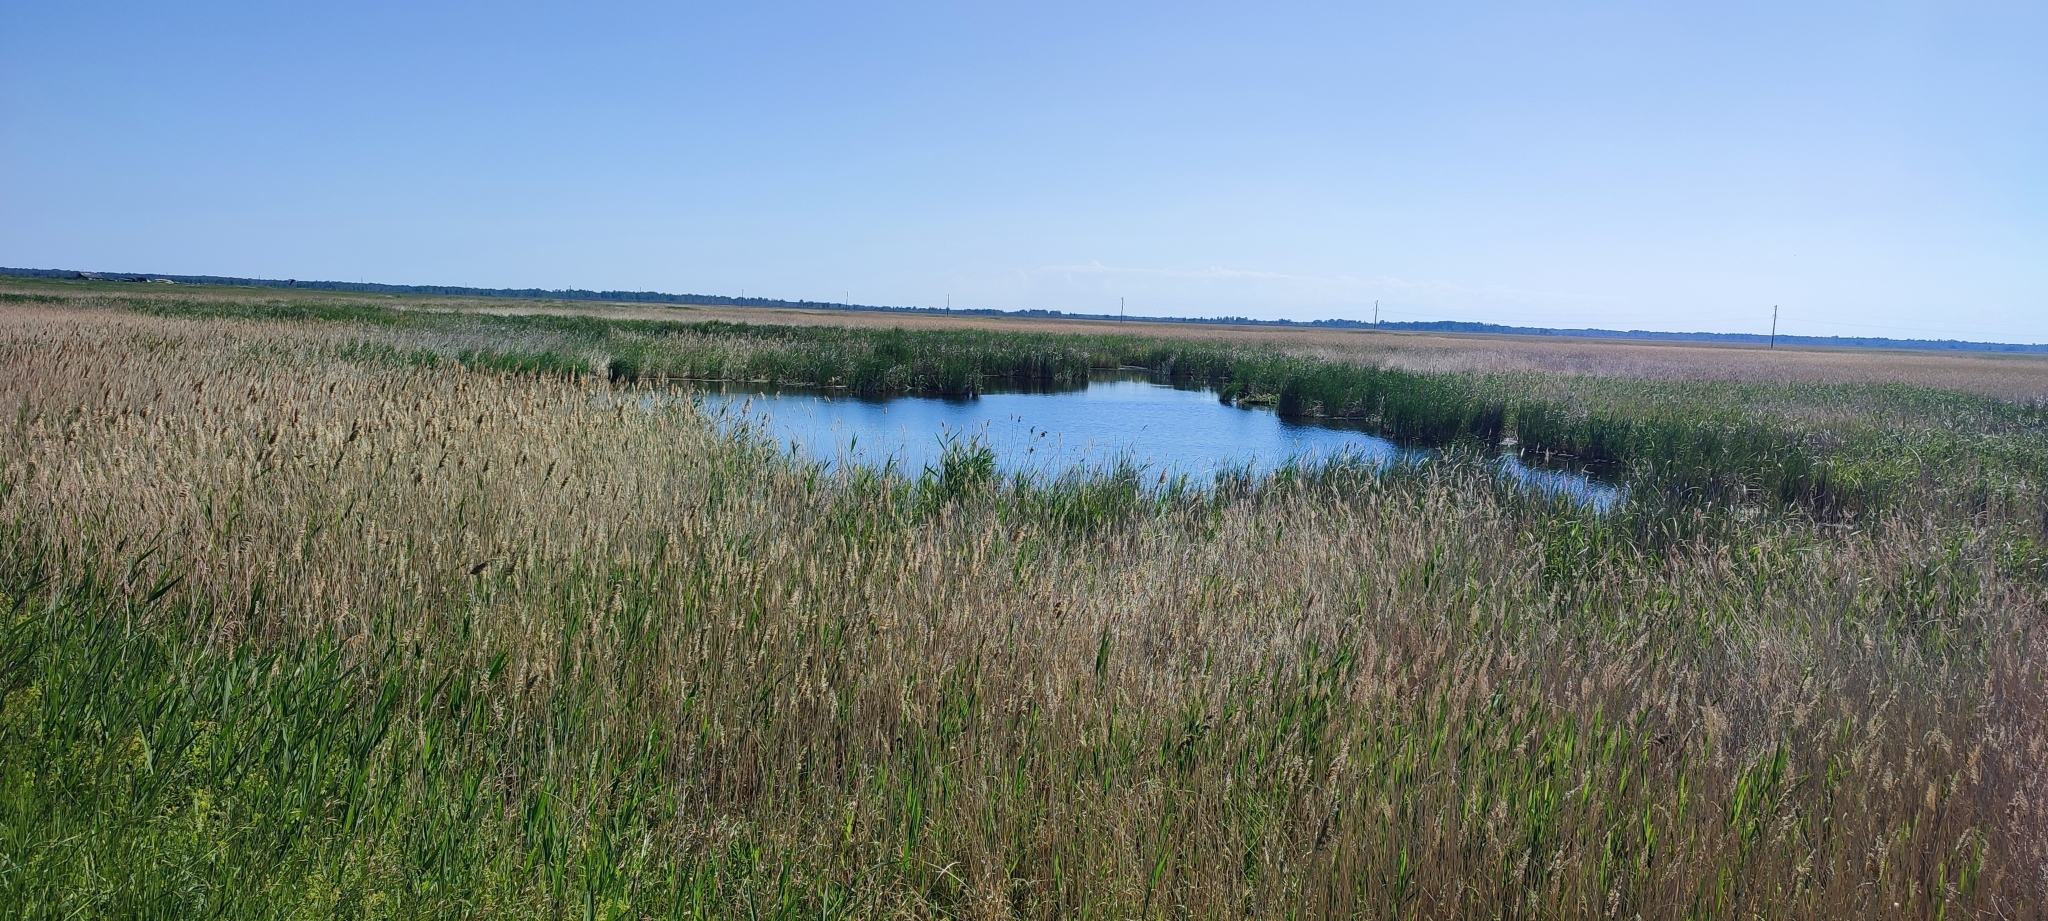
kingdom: Plantae
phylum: Tracheophyta
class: Liliopsida
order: Poales
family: Poaceae
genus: Phragmites
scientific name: Phragmites australis
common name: Common reed
